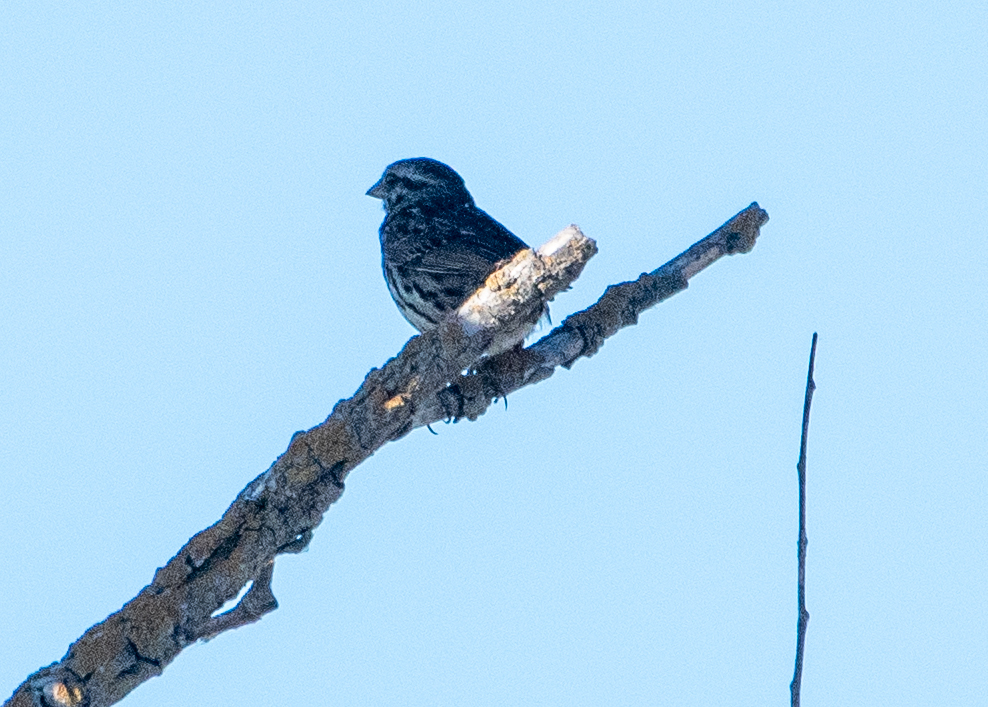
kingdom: Animalia
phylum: Chordata
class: Aves
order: Passeriformes
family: Passerellidae
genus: Melospiza
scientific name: Melospiza melodia
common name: Song sparrow
